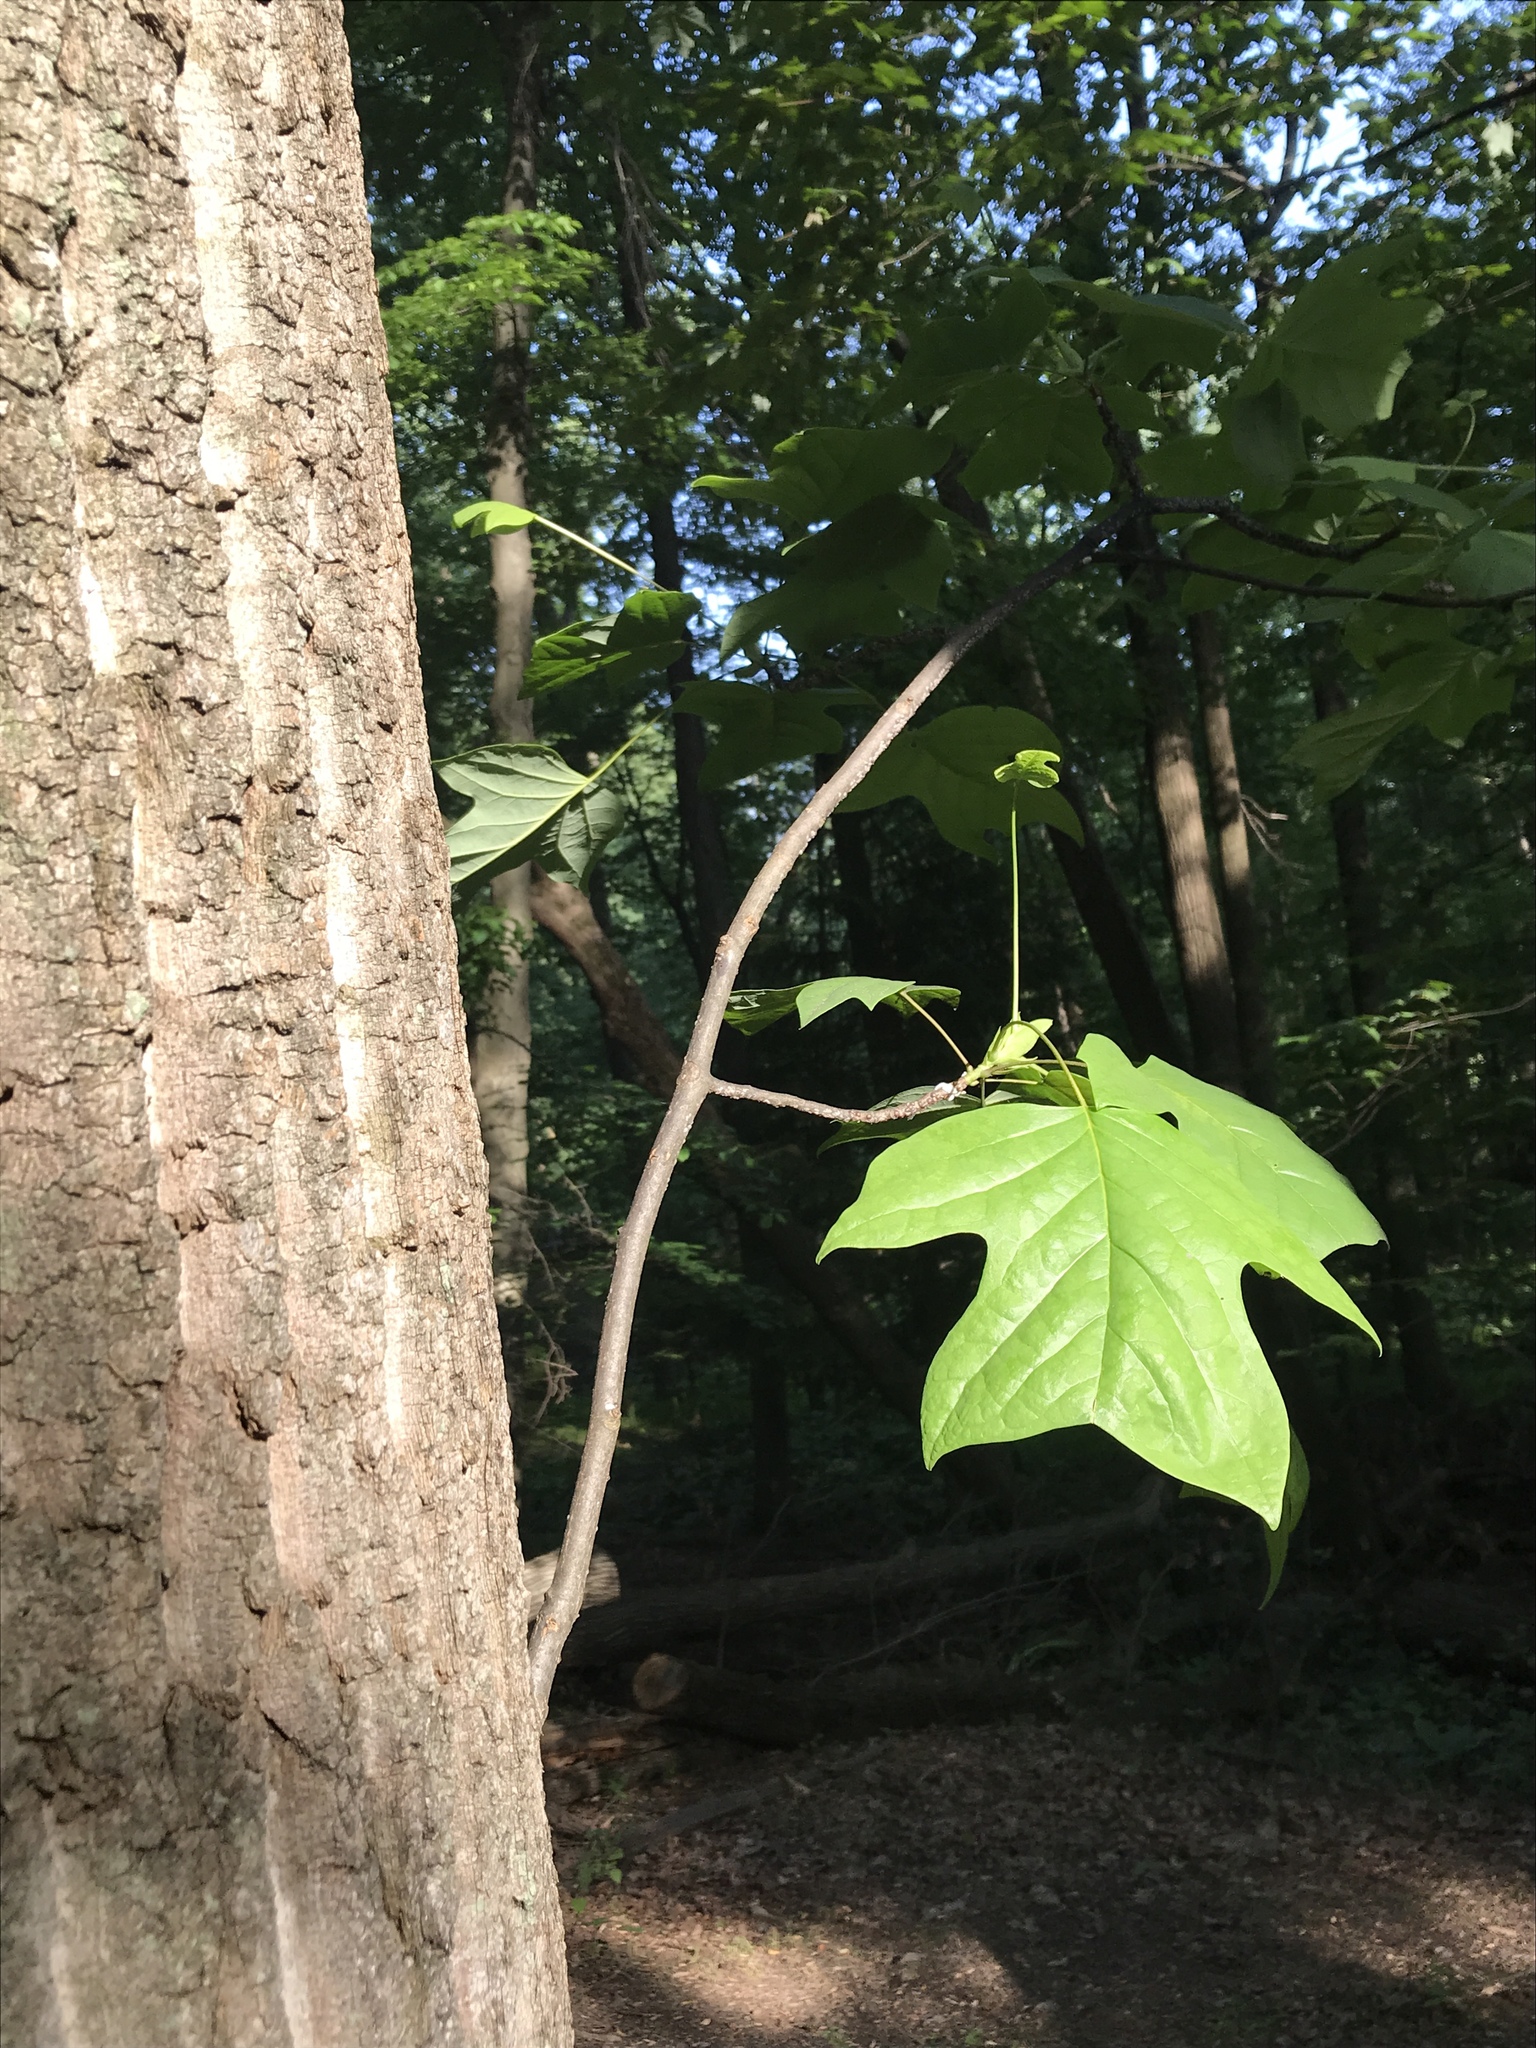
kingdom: Plantae
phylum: Tracheophyta
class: Magnoliopsida
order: Magnoliales
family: Magnoliaceae
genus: Liriodendron
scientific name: Liriodendron tulipifera
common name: Tulip tree
